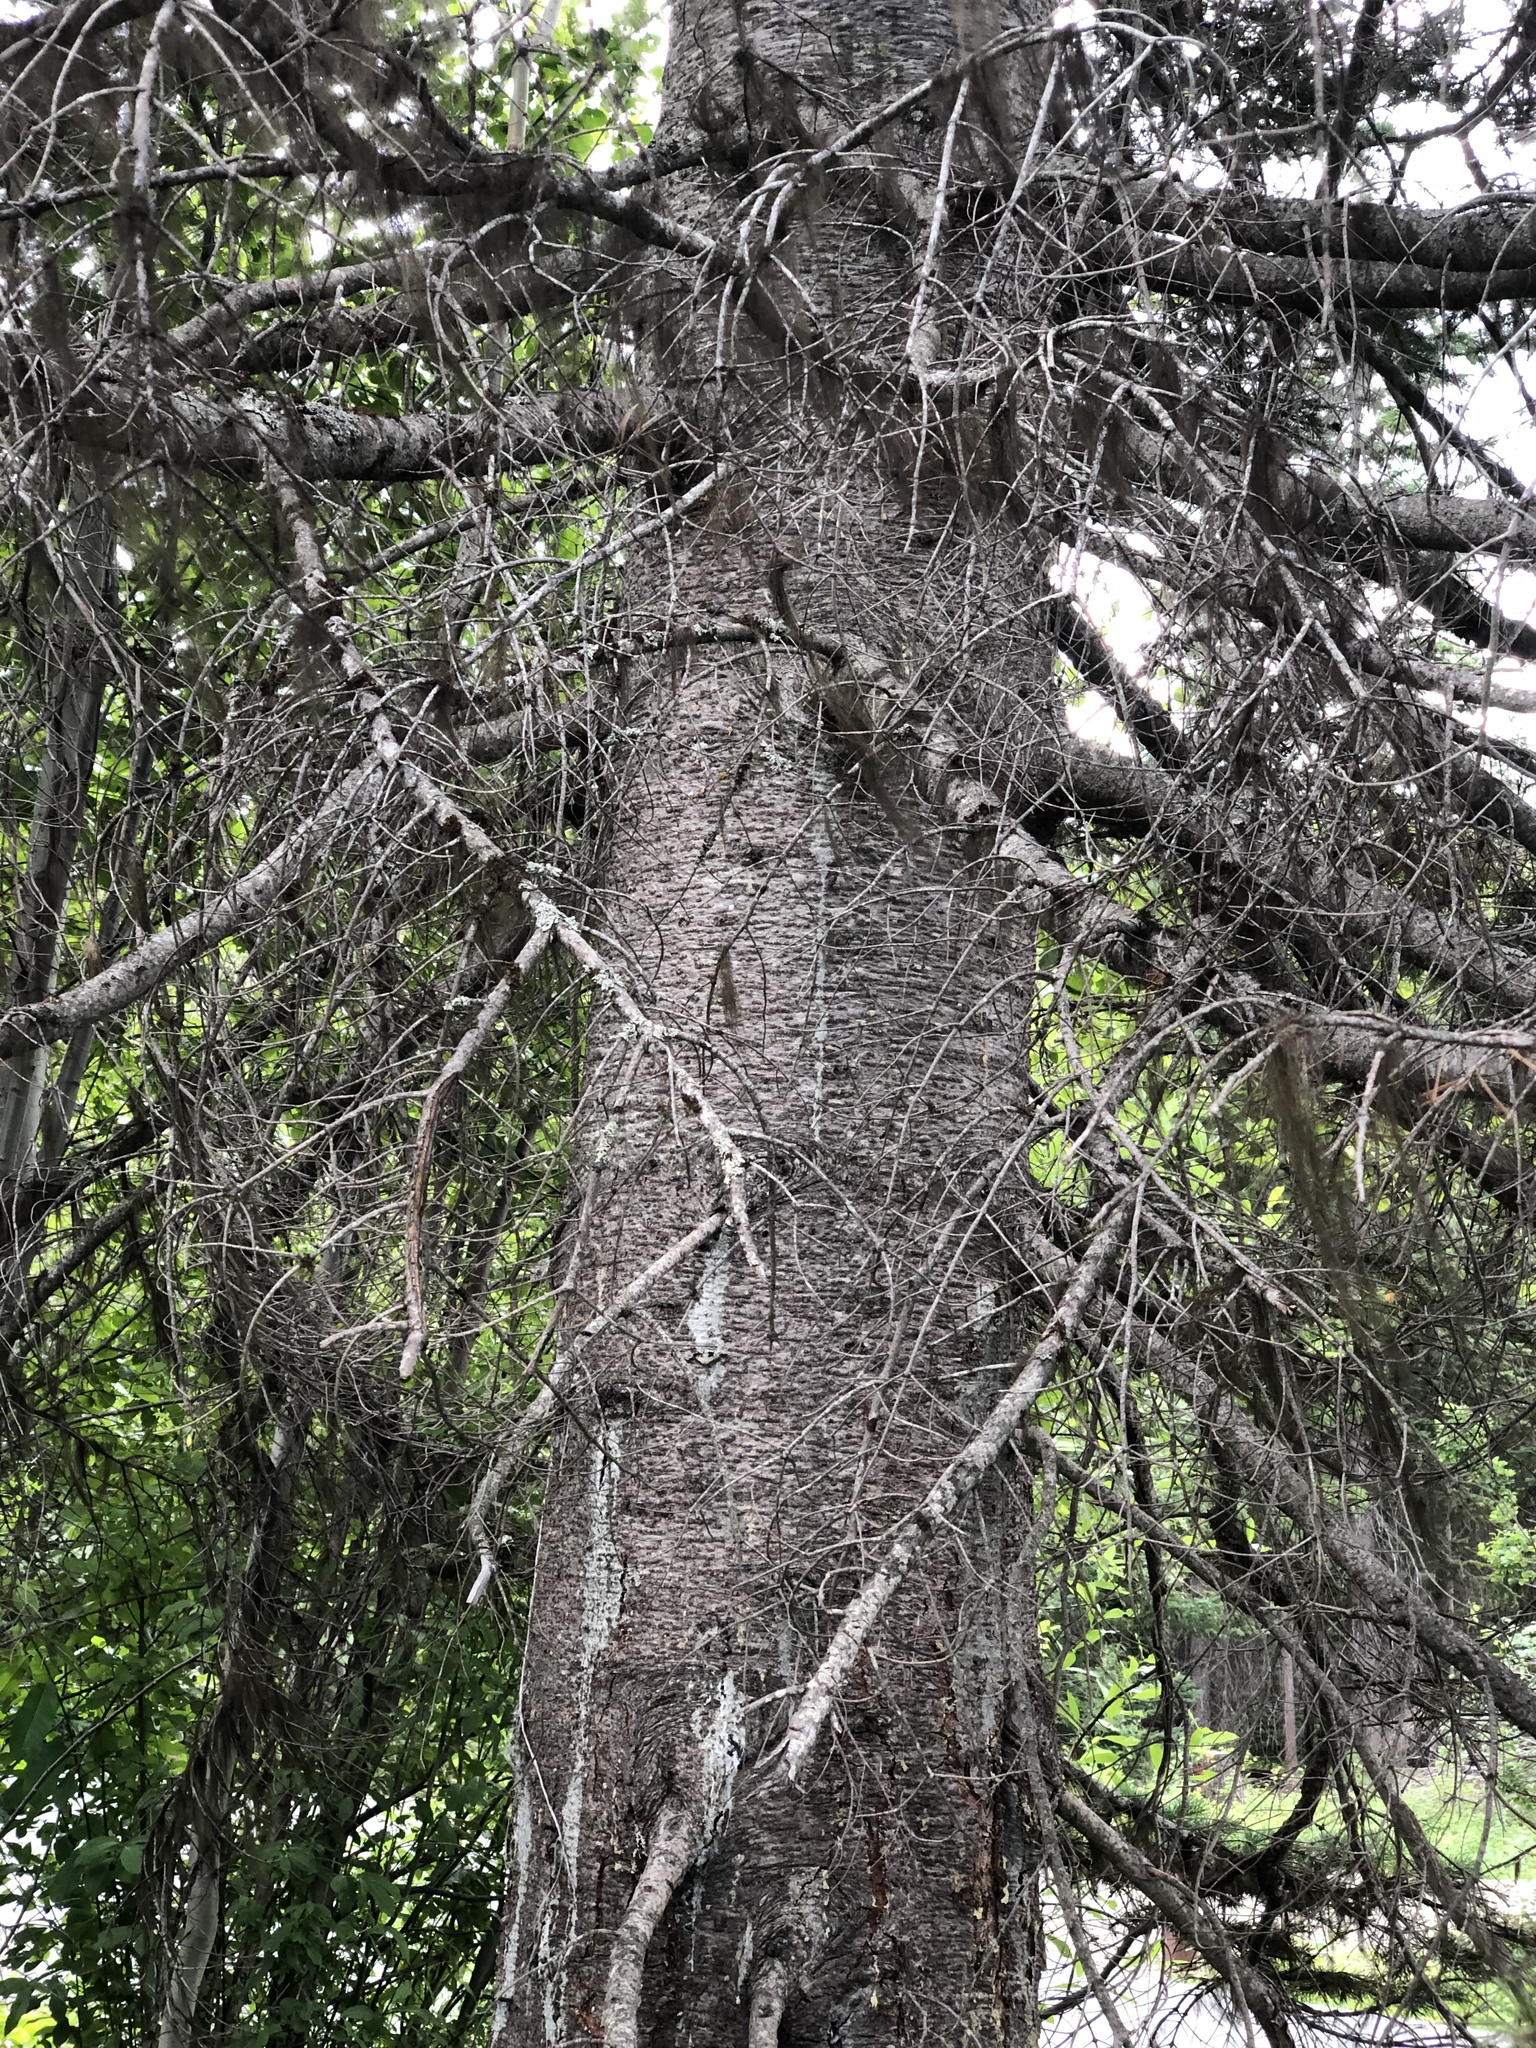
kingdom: Plantae
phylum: Tracheophyta
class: Pinopsida
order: Pinales
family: Pinaceae
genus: Abies
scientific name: Abies lasiocarpa
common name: Subalpine fir
